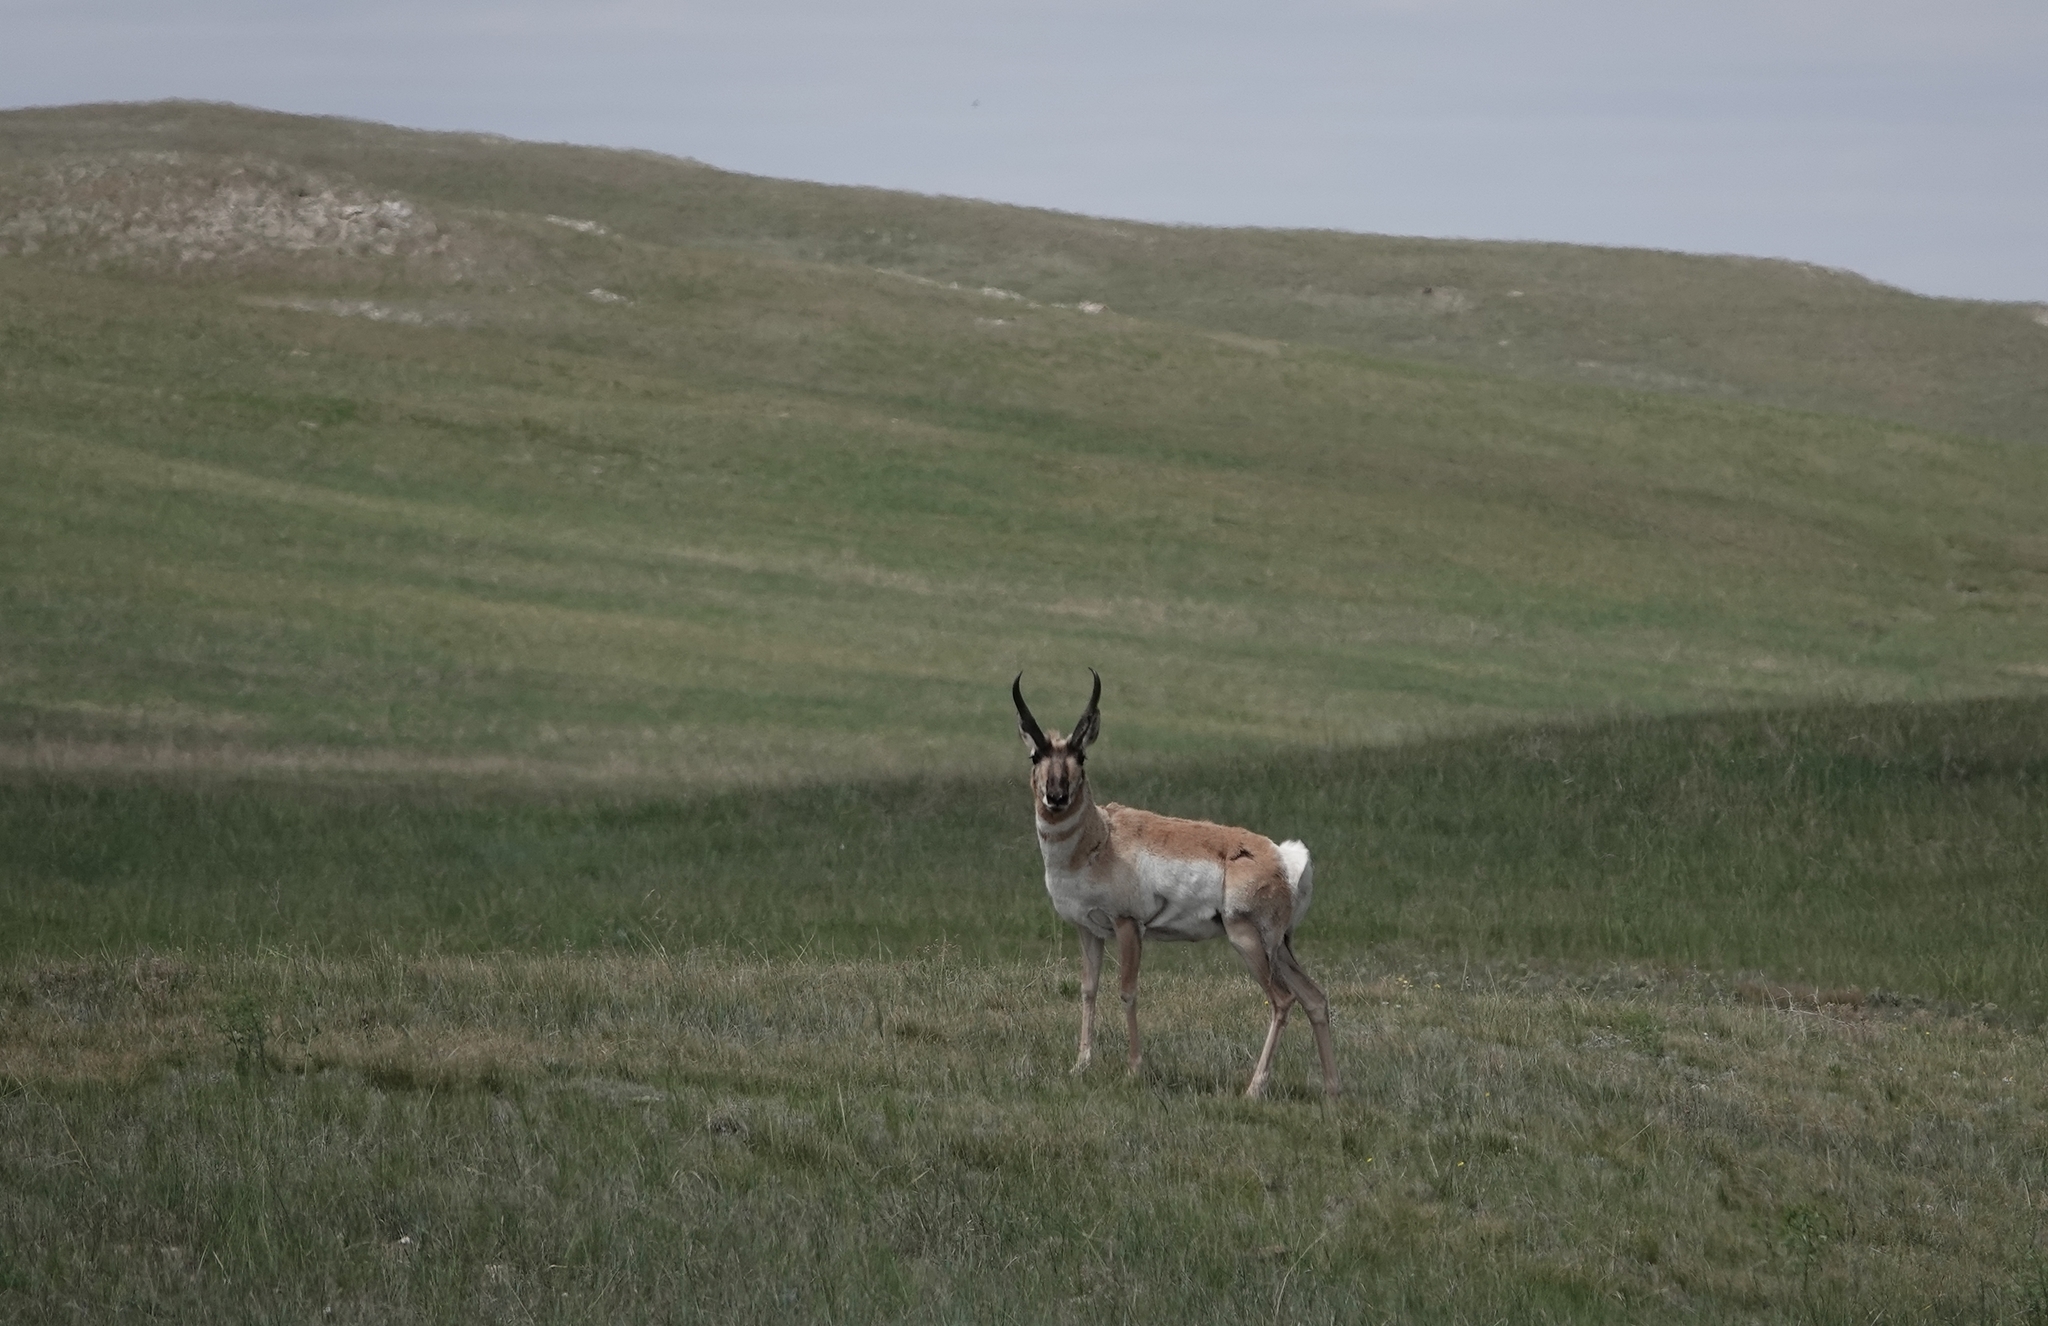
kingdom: Animalia
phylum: Chordata
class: Mammalia
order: Artiodactyla
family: Antilocapridae
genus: Antilocapra
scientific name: Antilocapra americana
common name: Pronghorn
